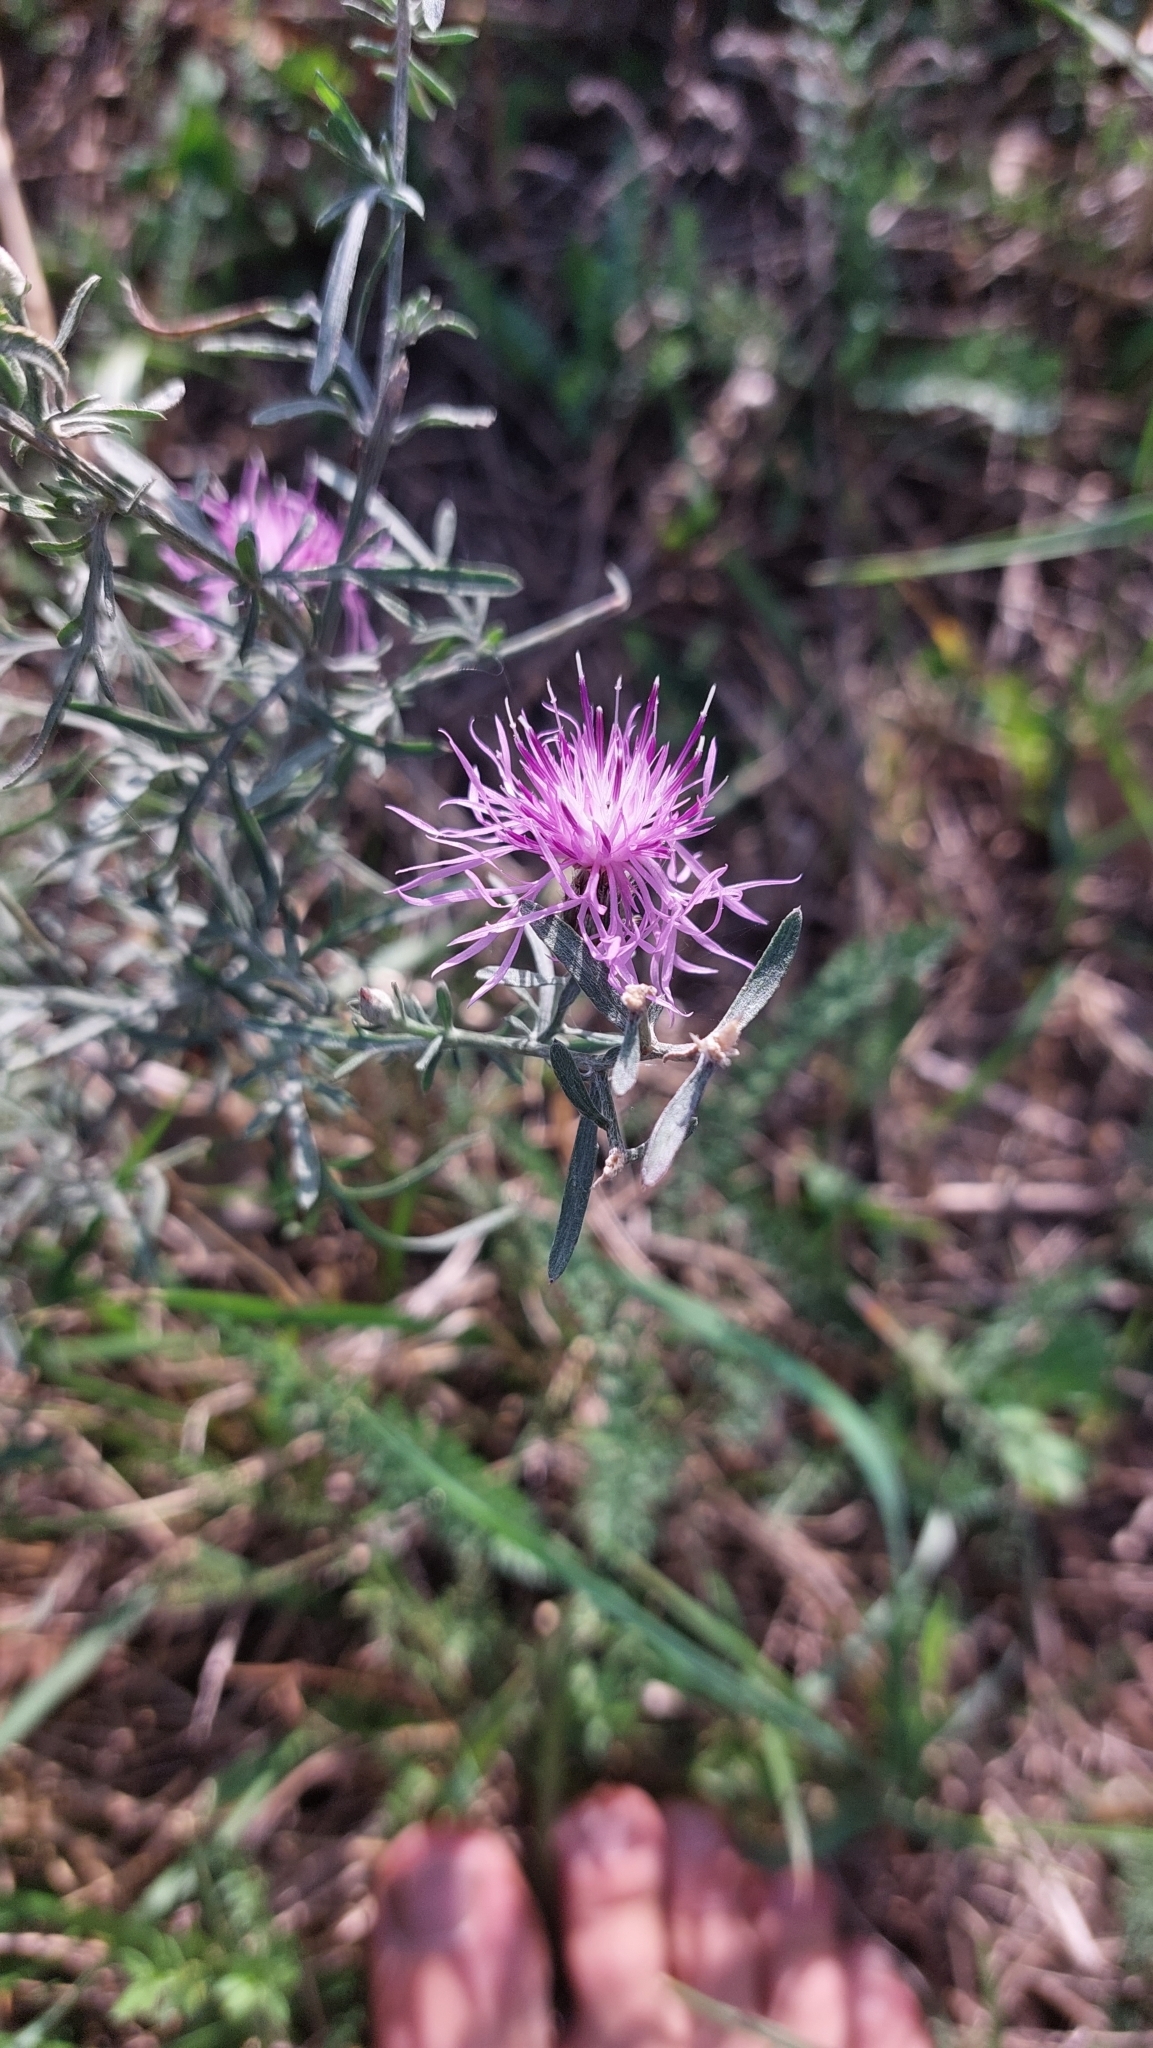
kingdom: Plantae
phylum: Tracheophyta
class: Magnoliopsida
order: Asterales
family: Asteraceae
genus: Centaurea
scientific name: Centaurea stoebe
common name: Spotted knapweed
